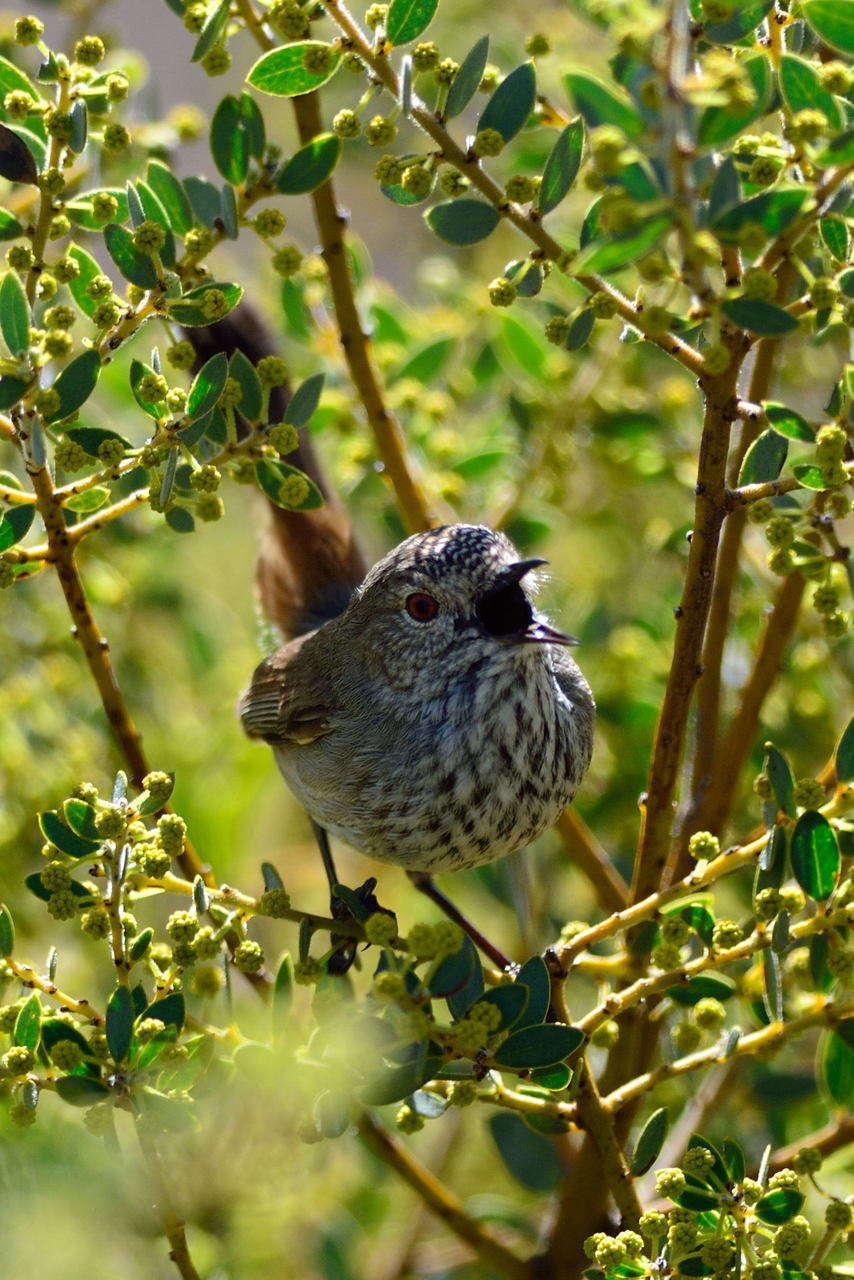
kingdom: Animalia
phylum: Chordata
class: Aves
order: Passeriformes
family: Acanthizidae
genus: Acanthiza
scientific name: Acanthiza apicalis
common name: Inland thornbill
